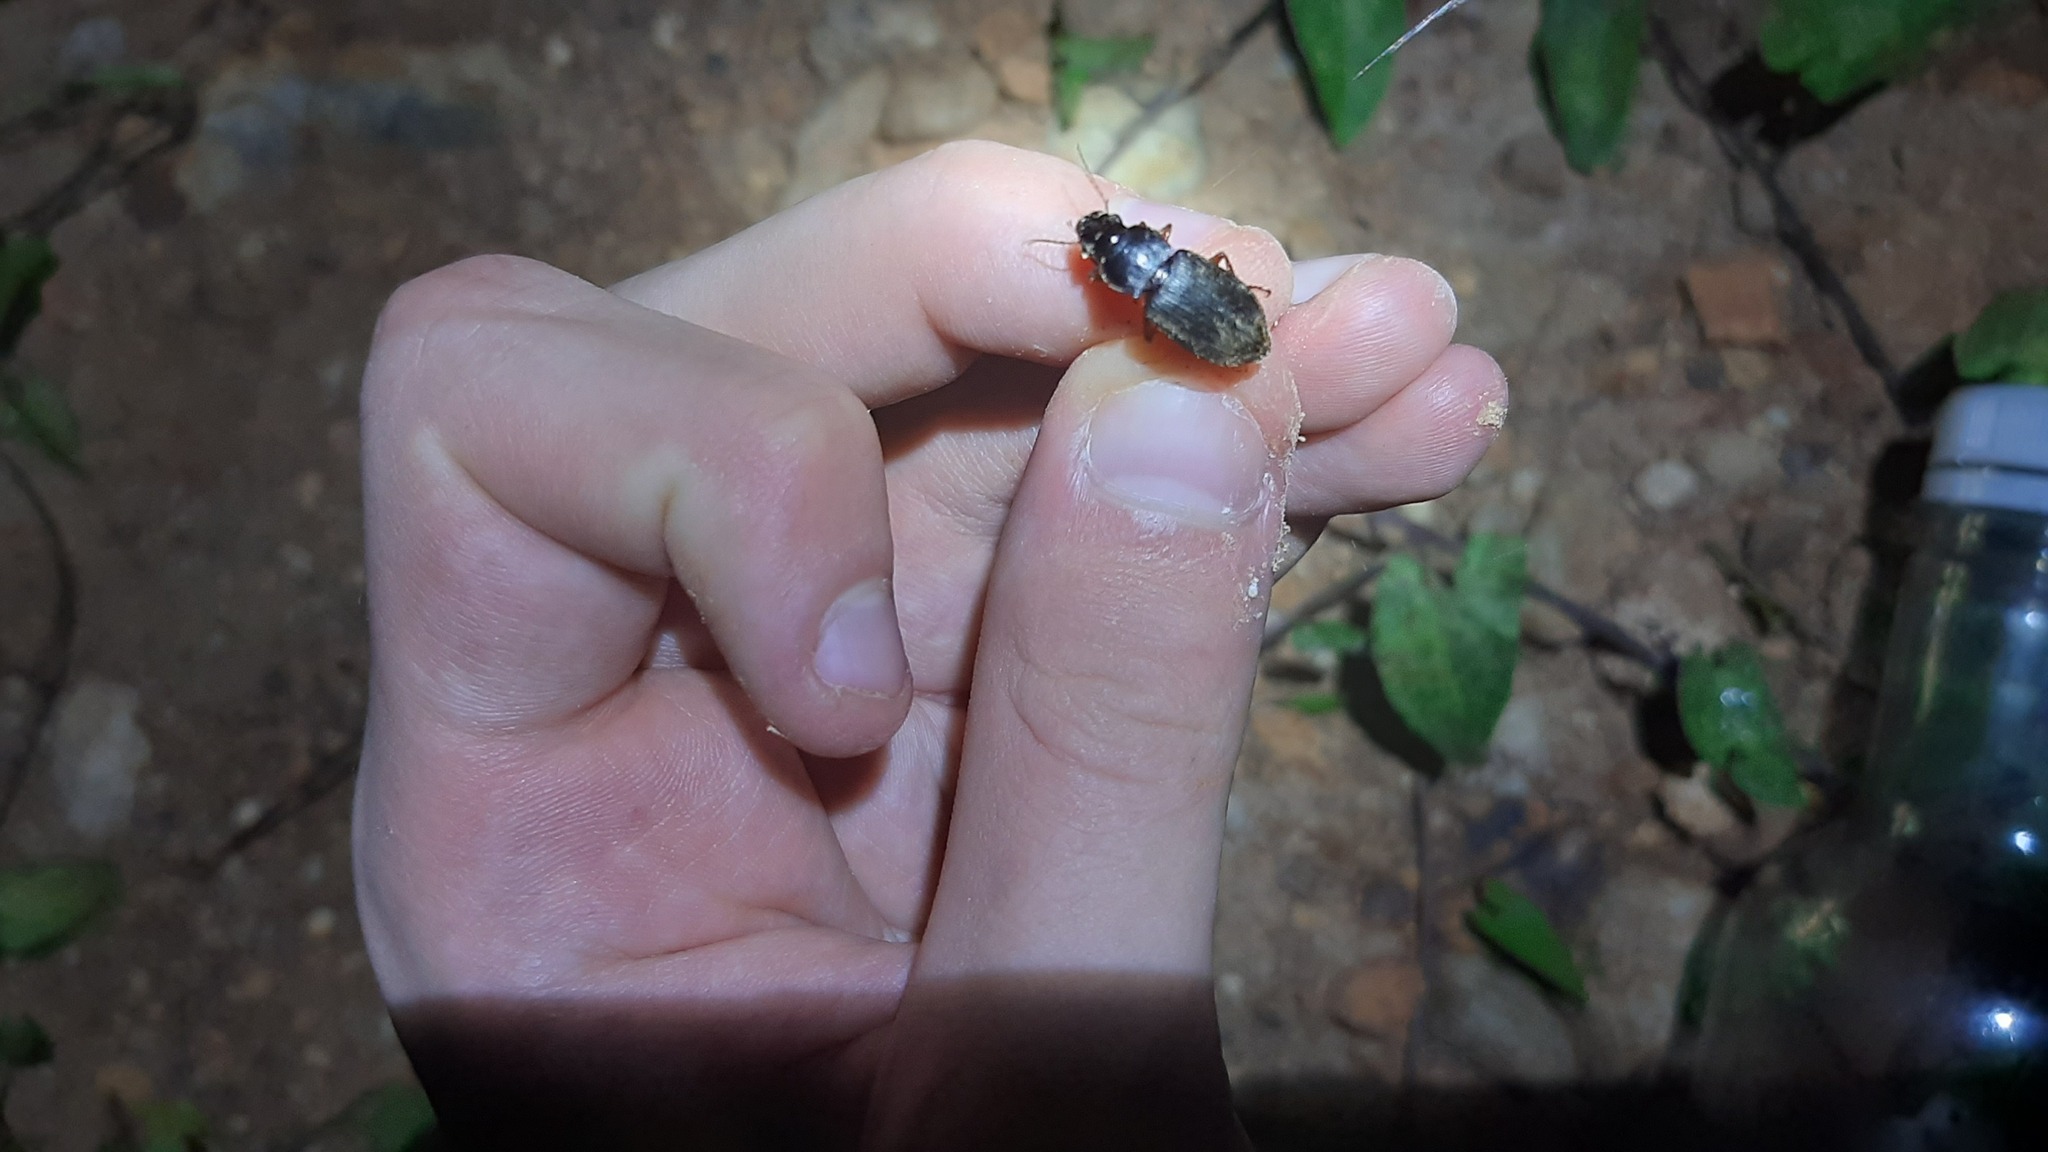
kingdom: Animalia
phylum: Arthropoda
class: Insecta
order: Coleoptera
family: Carabidae
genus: Harpalus
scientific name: Harpalus rufipes
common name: Strawberry harp ground beetle
